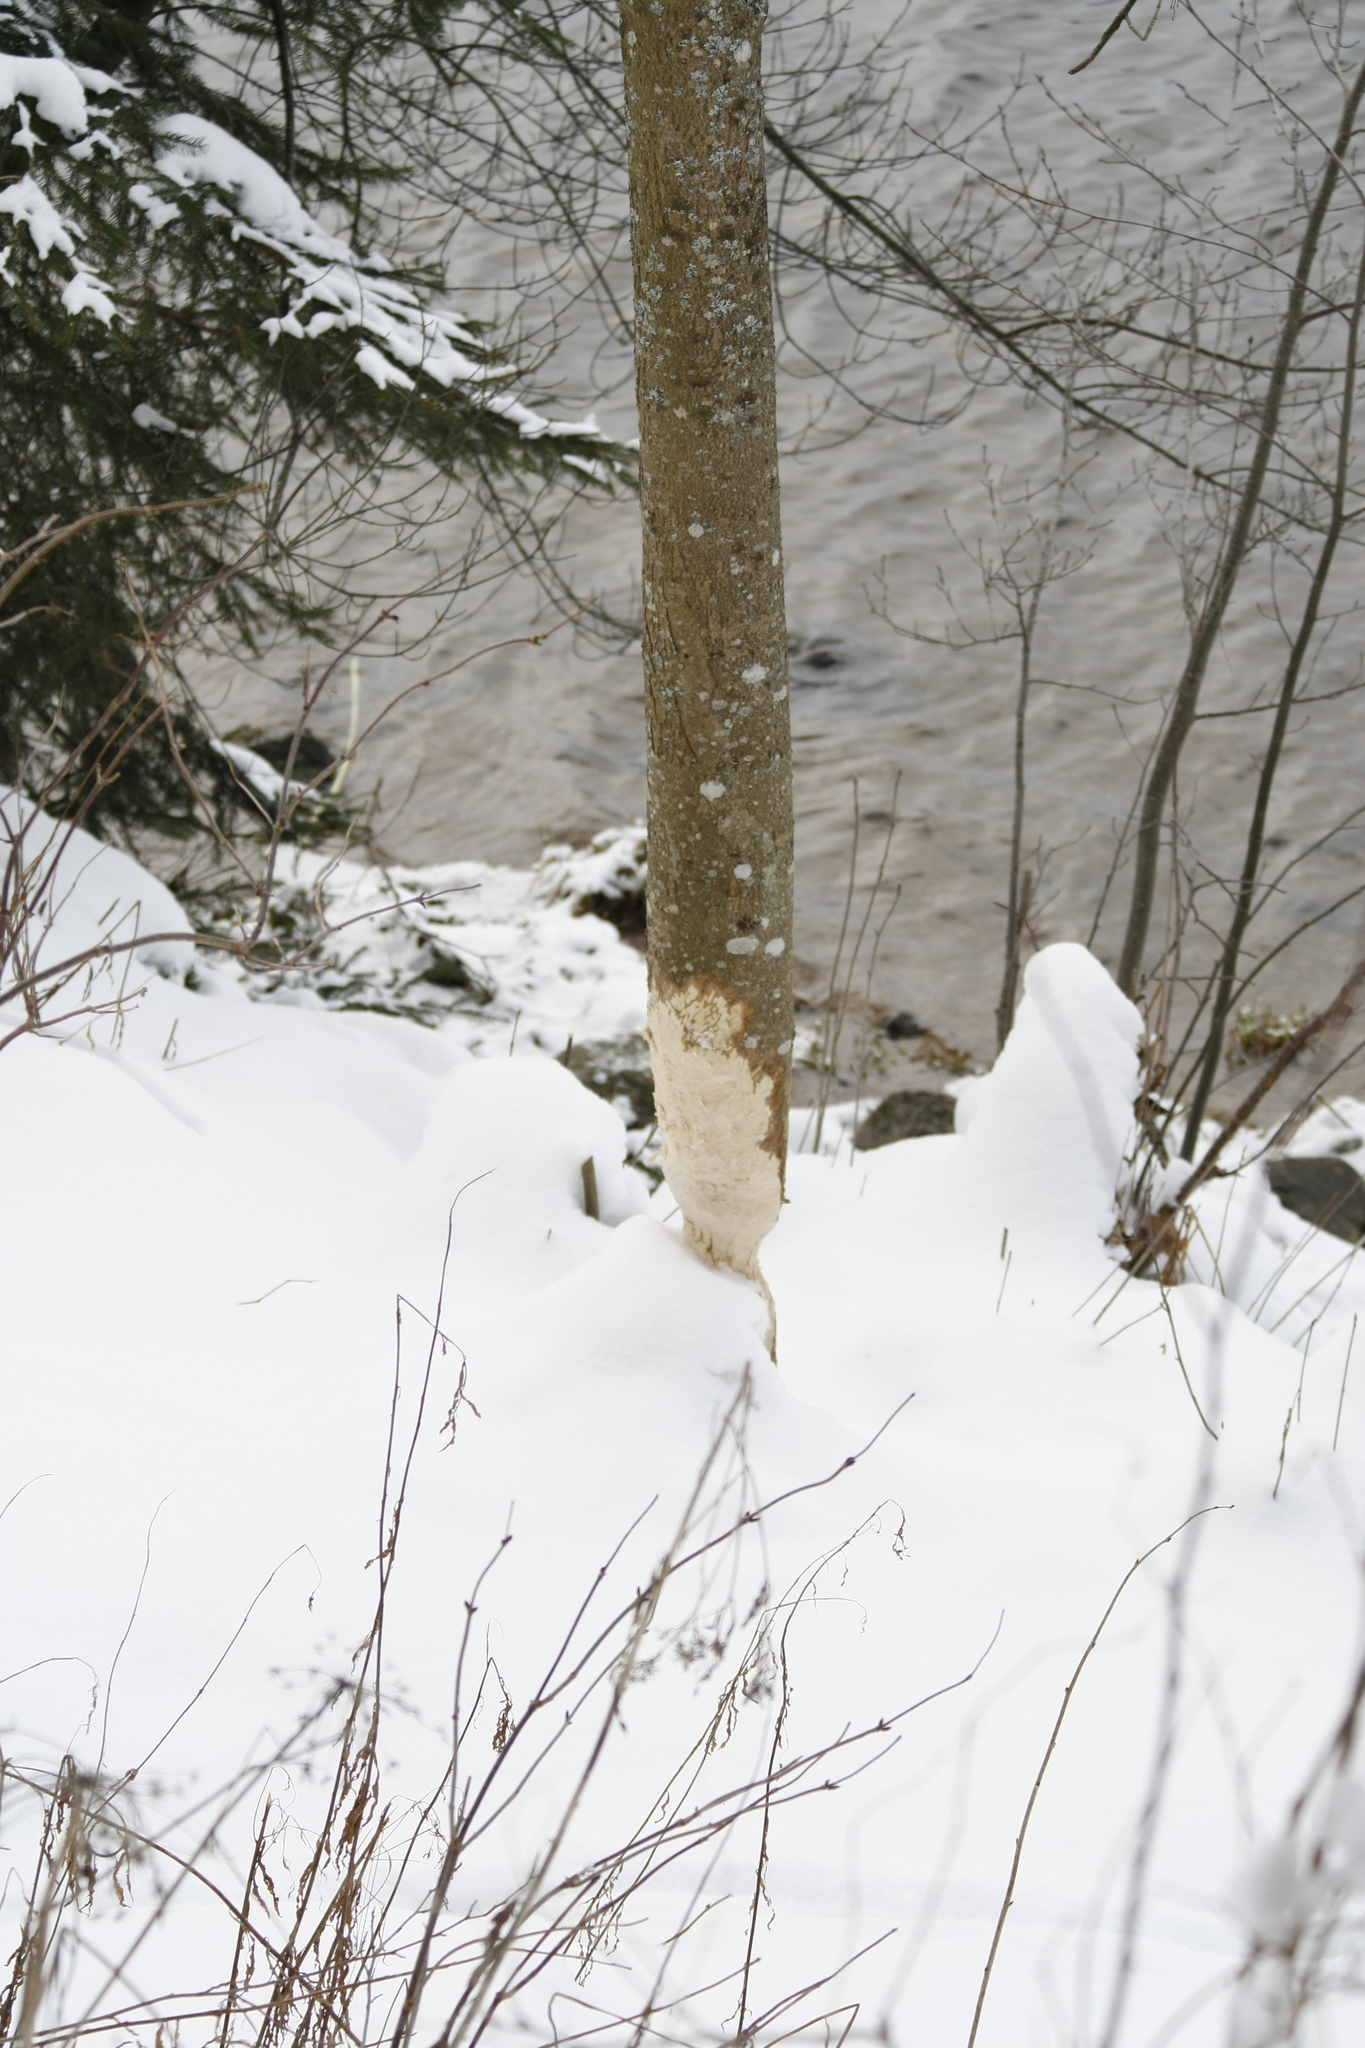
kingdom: Animalia
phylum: Chordata
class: Mammalia
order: Rodentia
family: Castoridae
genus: Castor
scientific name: Castor fiber
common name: Eurasian beaver
